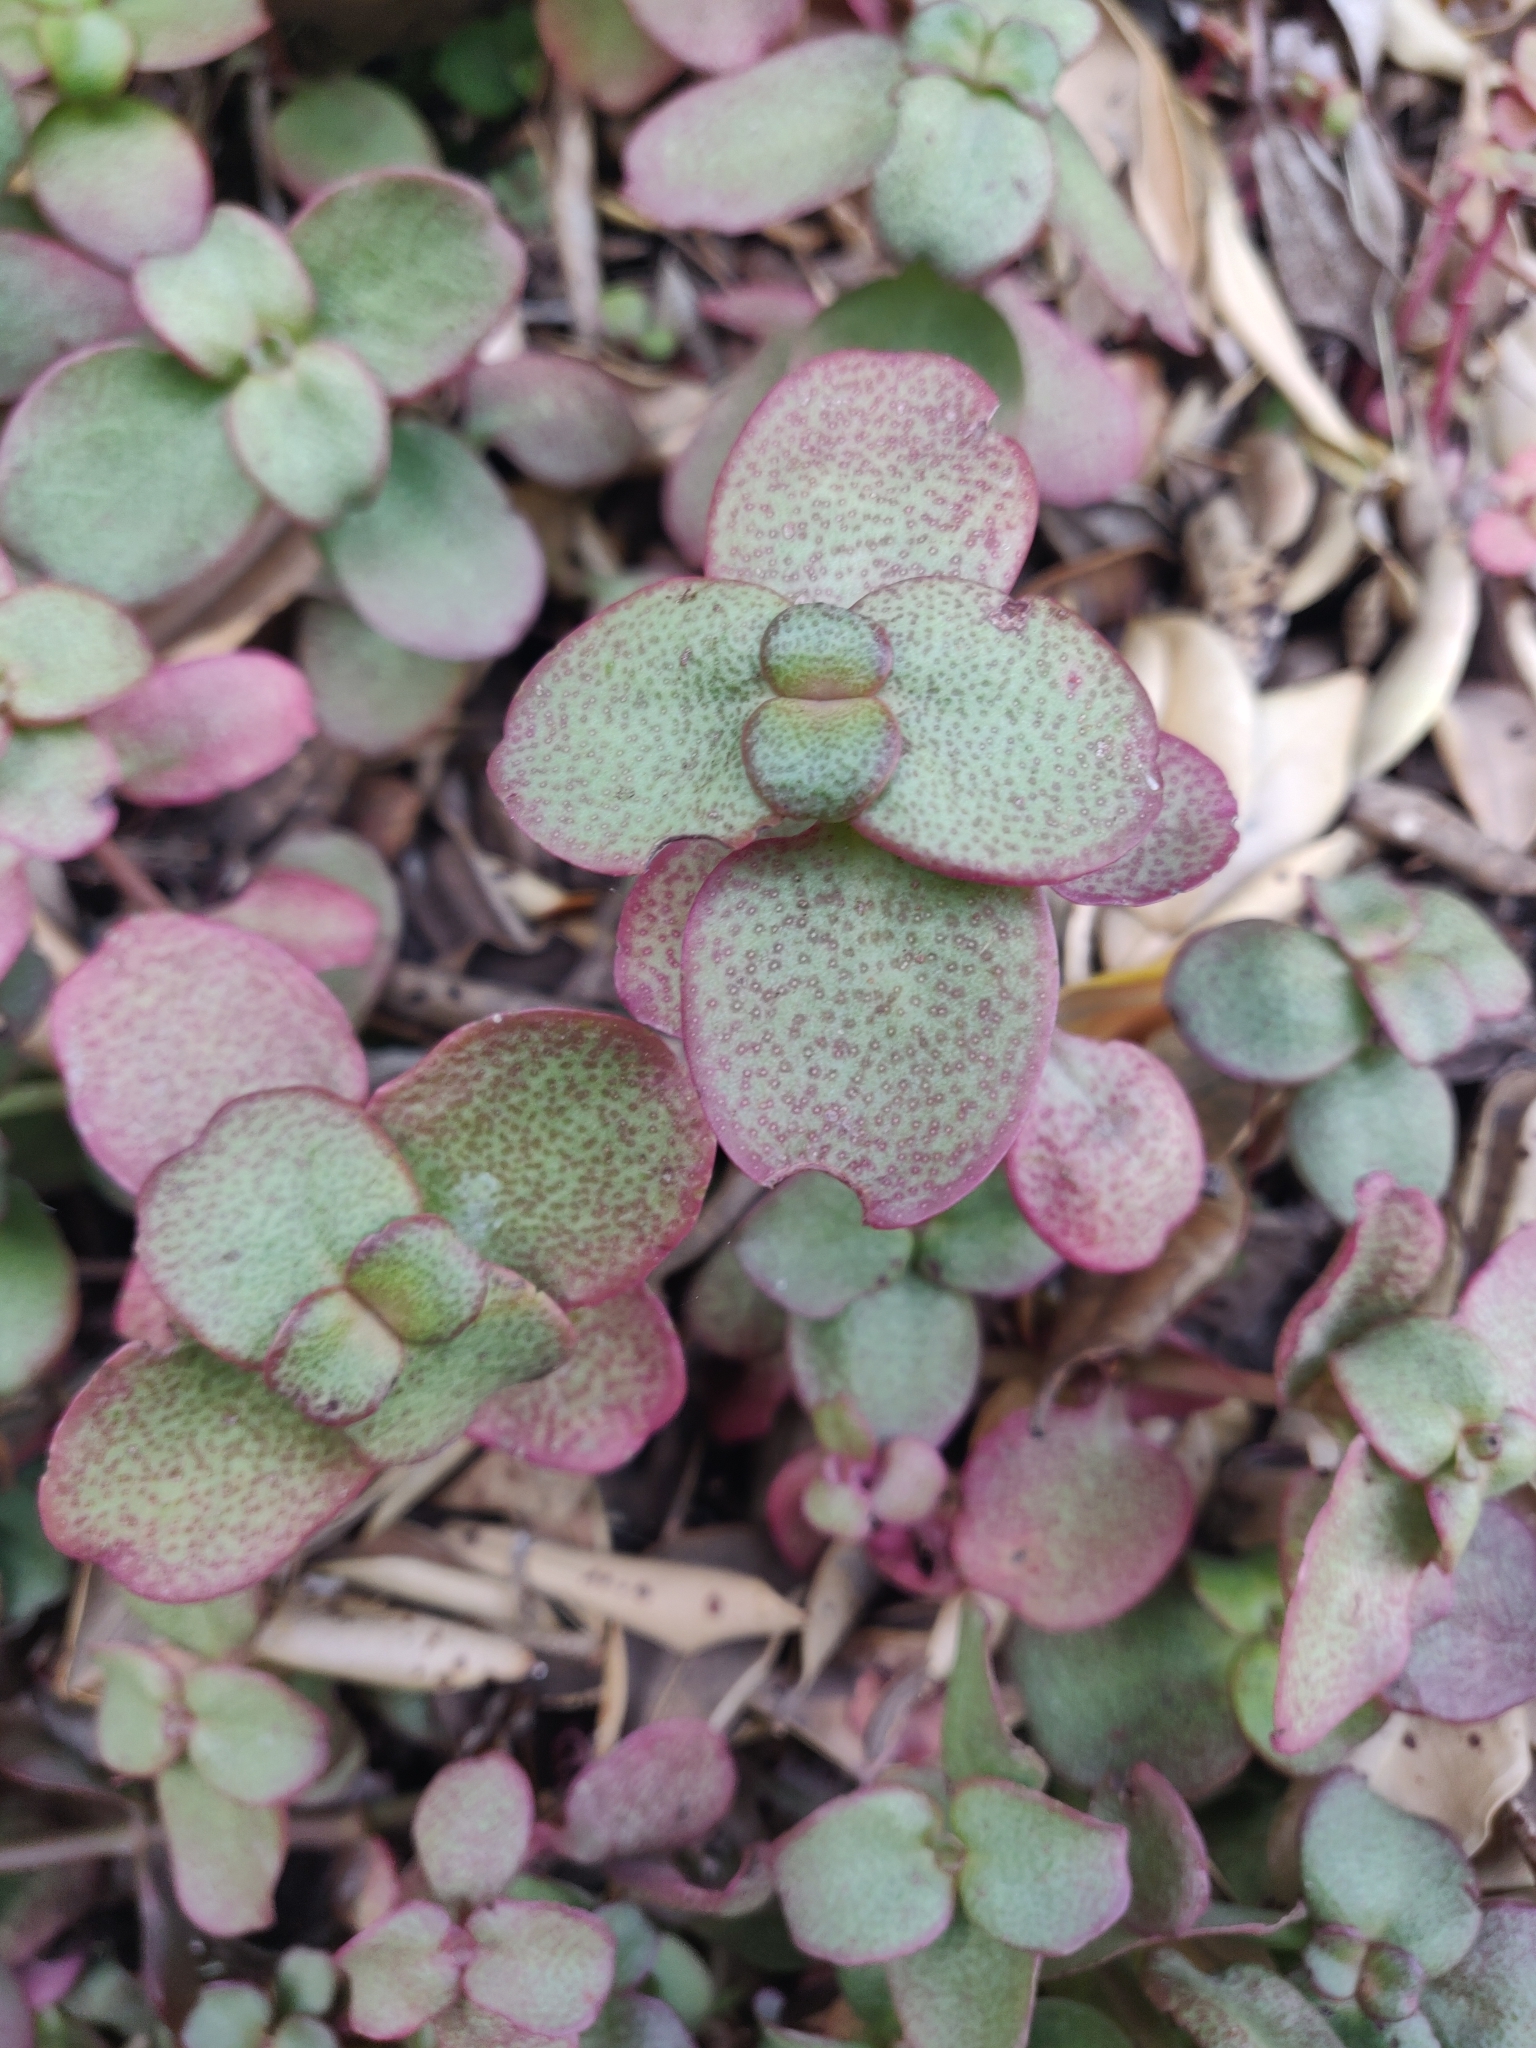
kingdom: Plantae
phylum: Tracheophyta
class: Magnoliopsida
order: Saxifragales
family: Crassulaceae
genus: Crassula
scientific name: Crassula multicava
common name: Cape province pygmyweed
